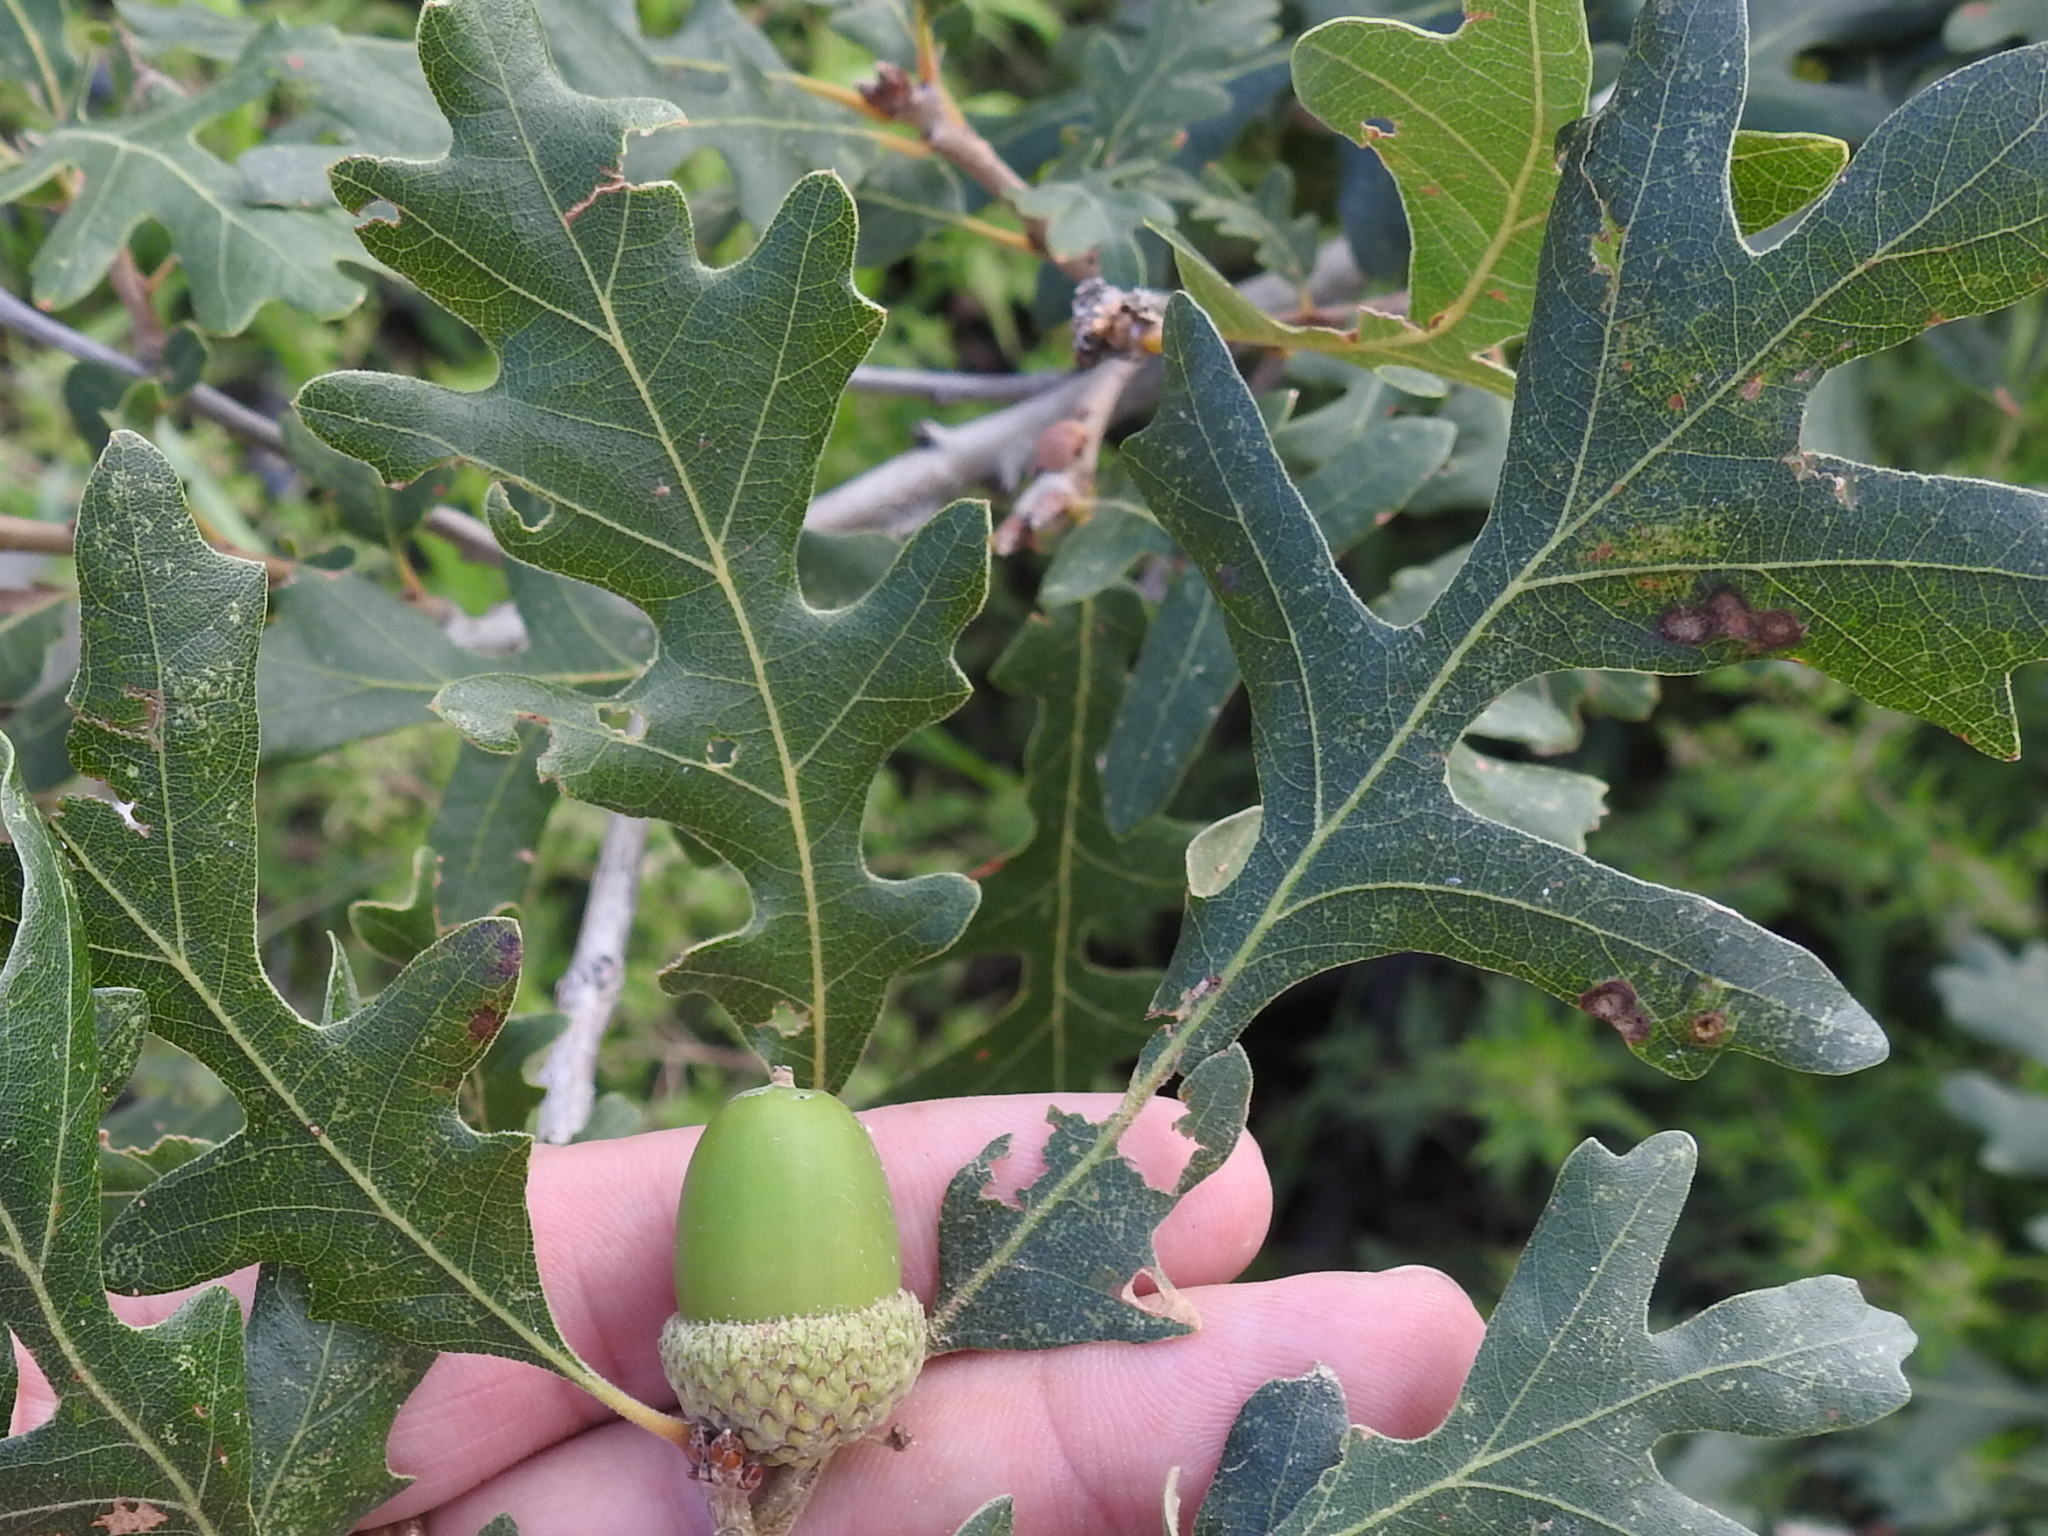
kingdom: Plantae
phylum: Tracheophyta
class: Magnoliopsida
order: Fagales
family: Fagaceae
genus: Quercus
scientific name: Quercus gambelii
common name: Gambel oak
